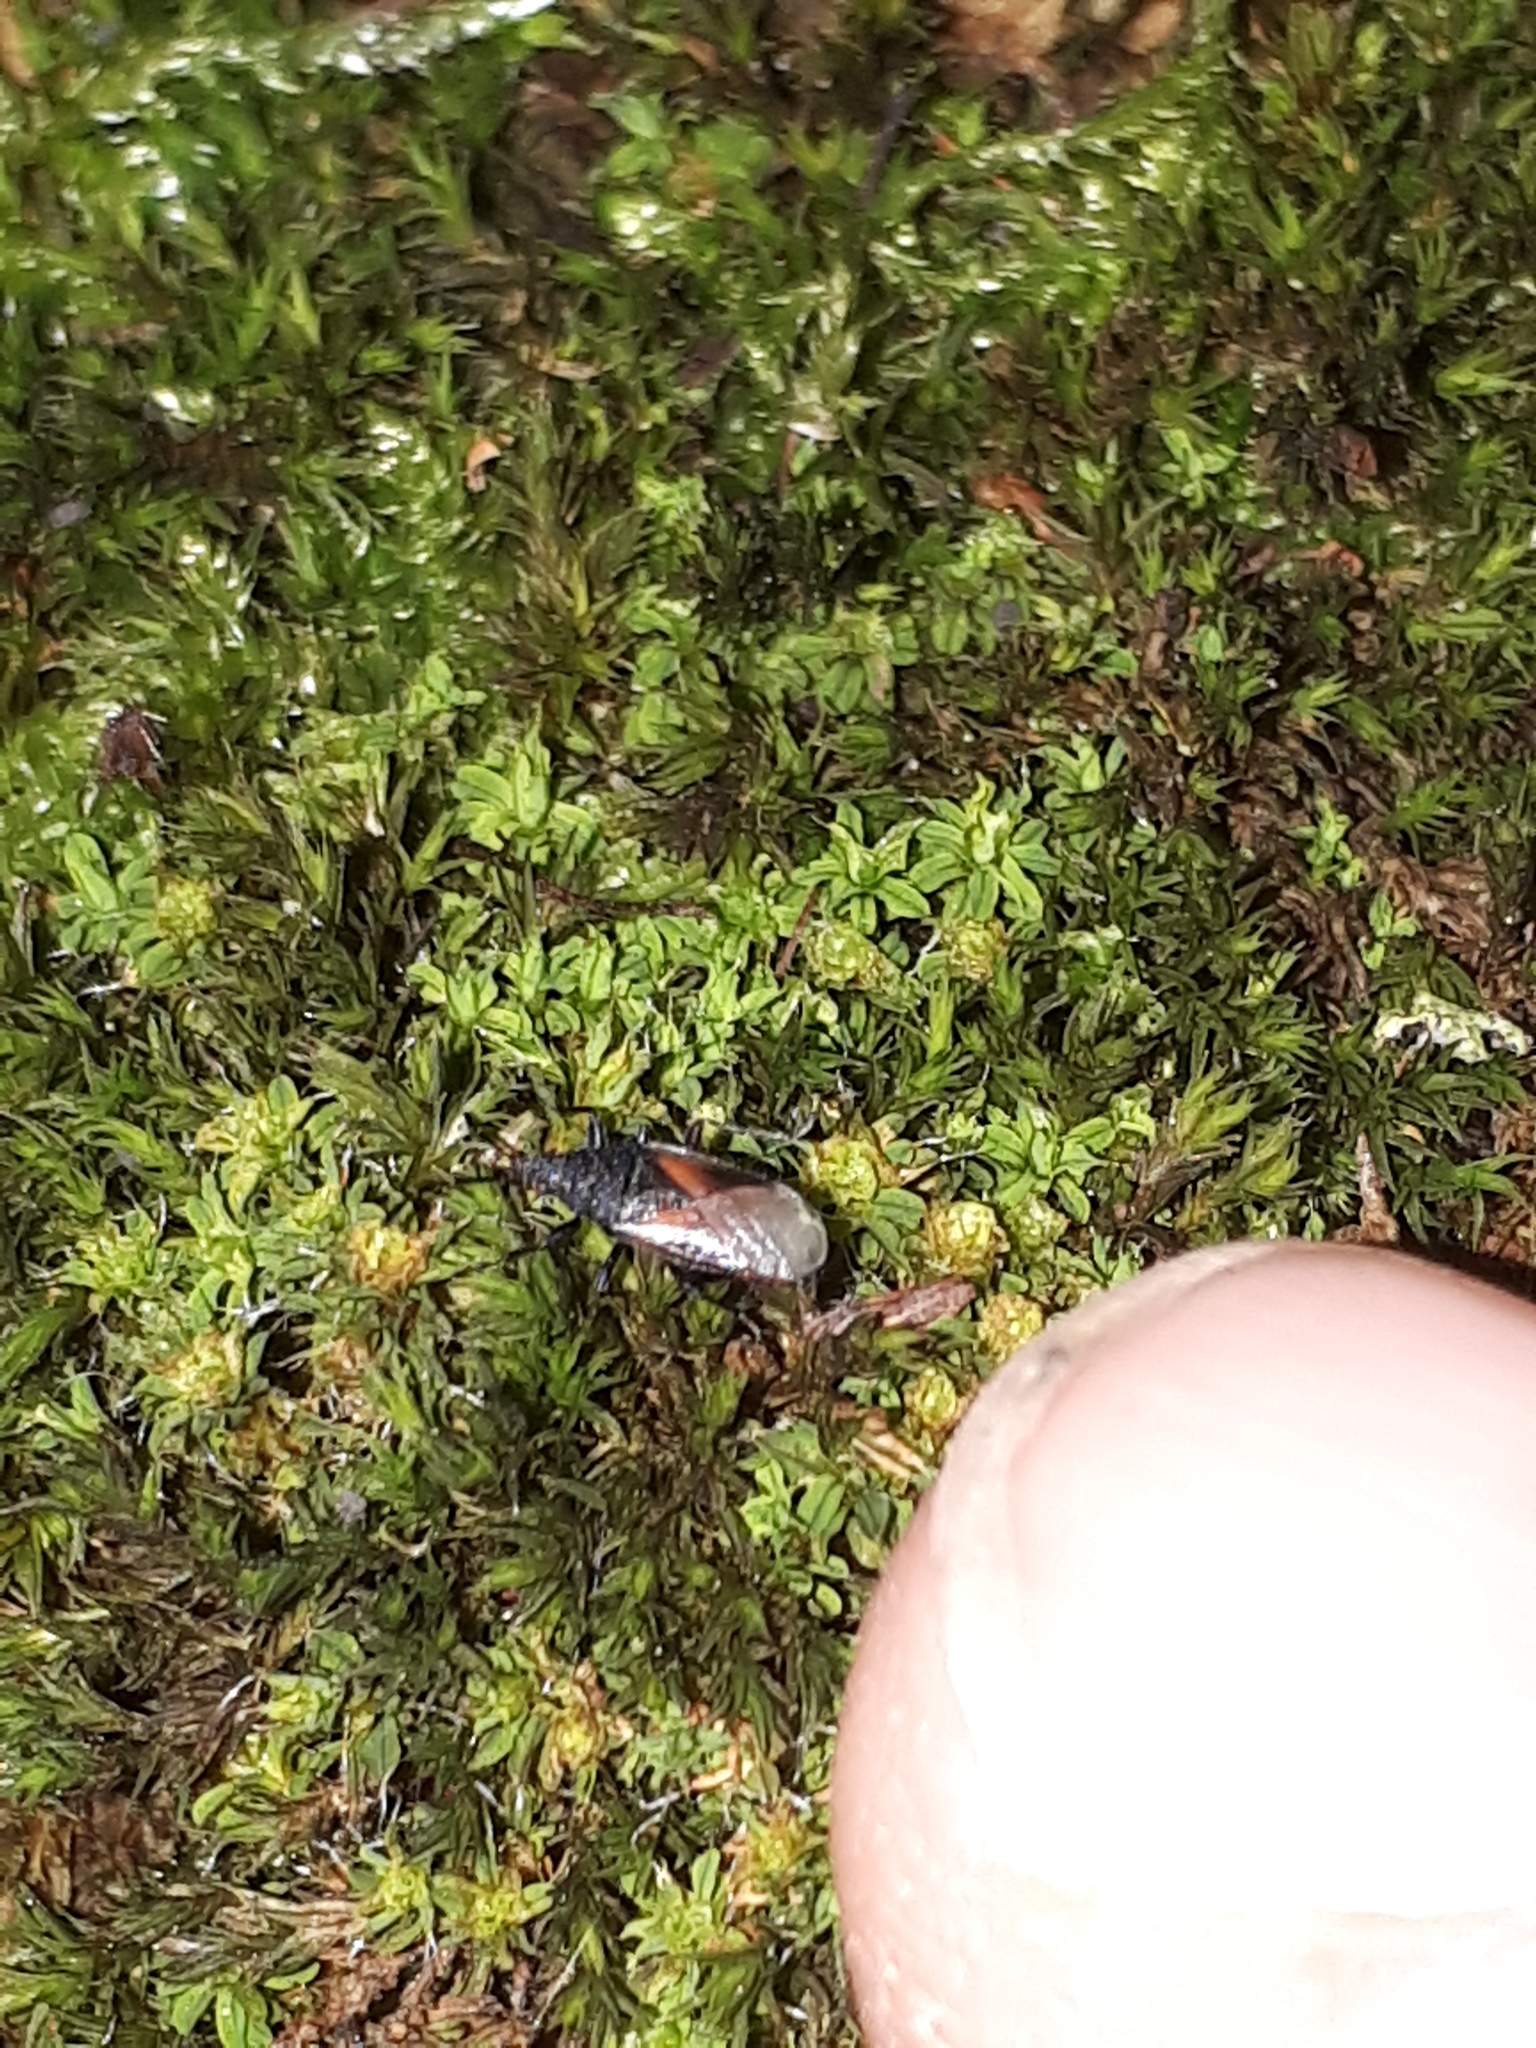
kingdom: Animalia
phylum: Arthropoda
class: Insecta
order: Hemiptera
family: Oxycarenidae
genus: Oxycarenus
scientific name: Oxycarenus lavaterae
